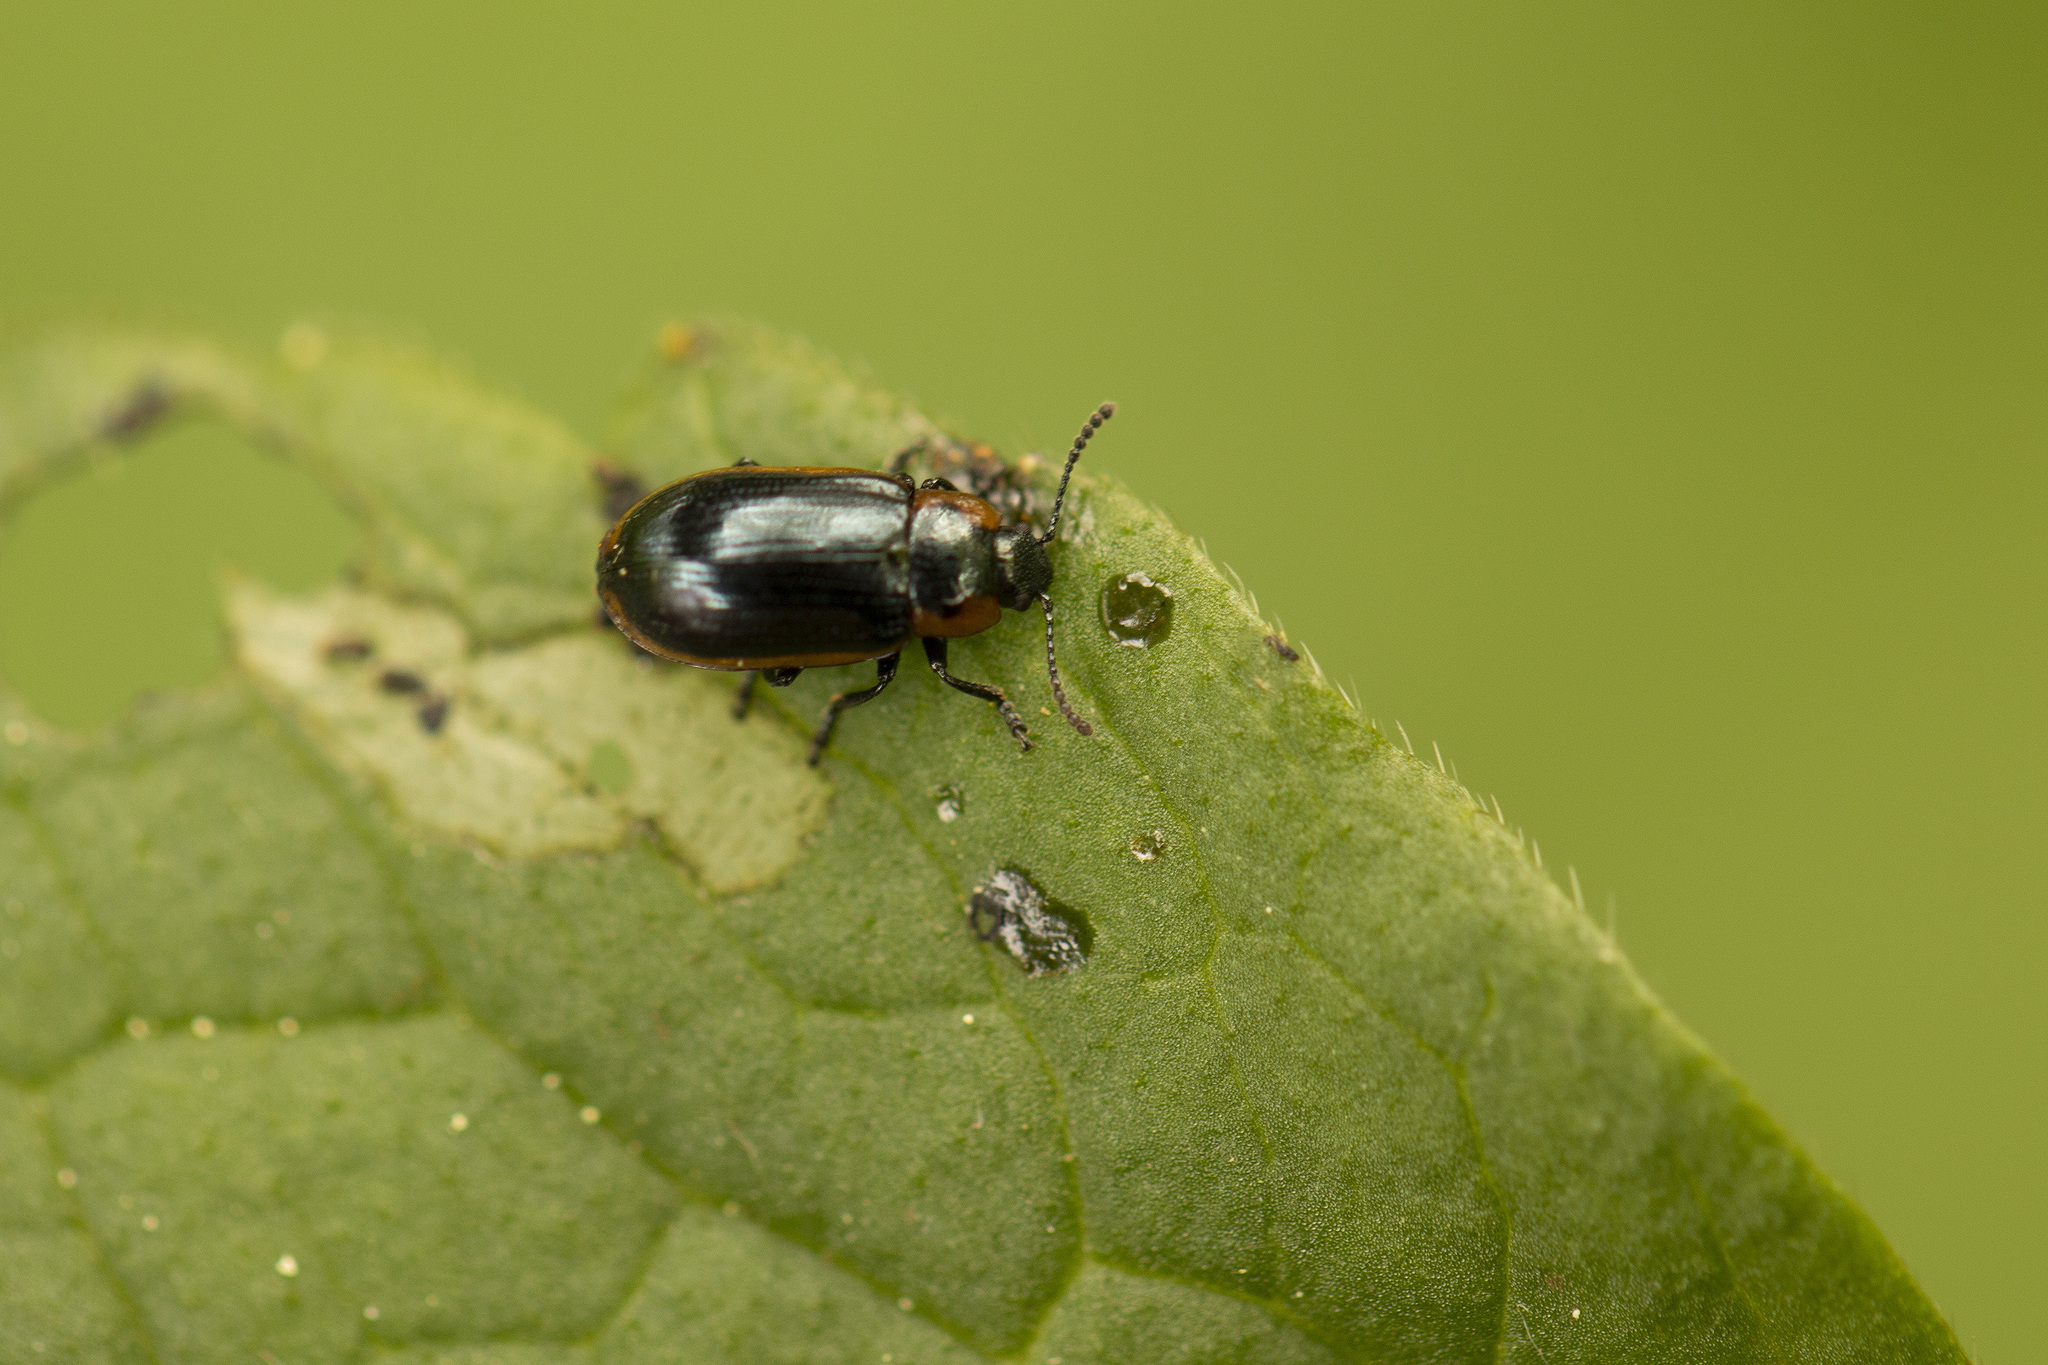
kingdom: Animalia
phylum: Arthropoda
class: Insecta
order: Coleoptera
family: Chrysomelidae
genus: Prasocuris
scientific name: Prasocuris marginella
